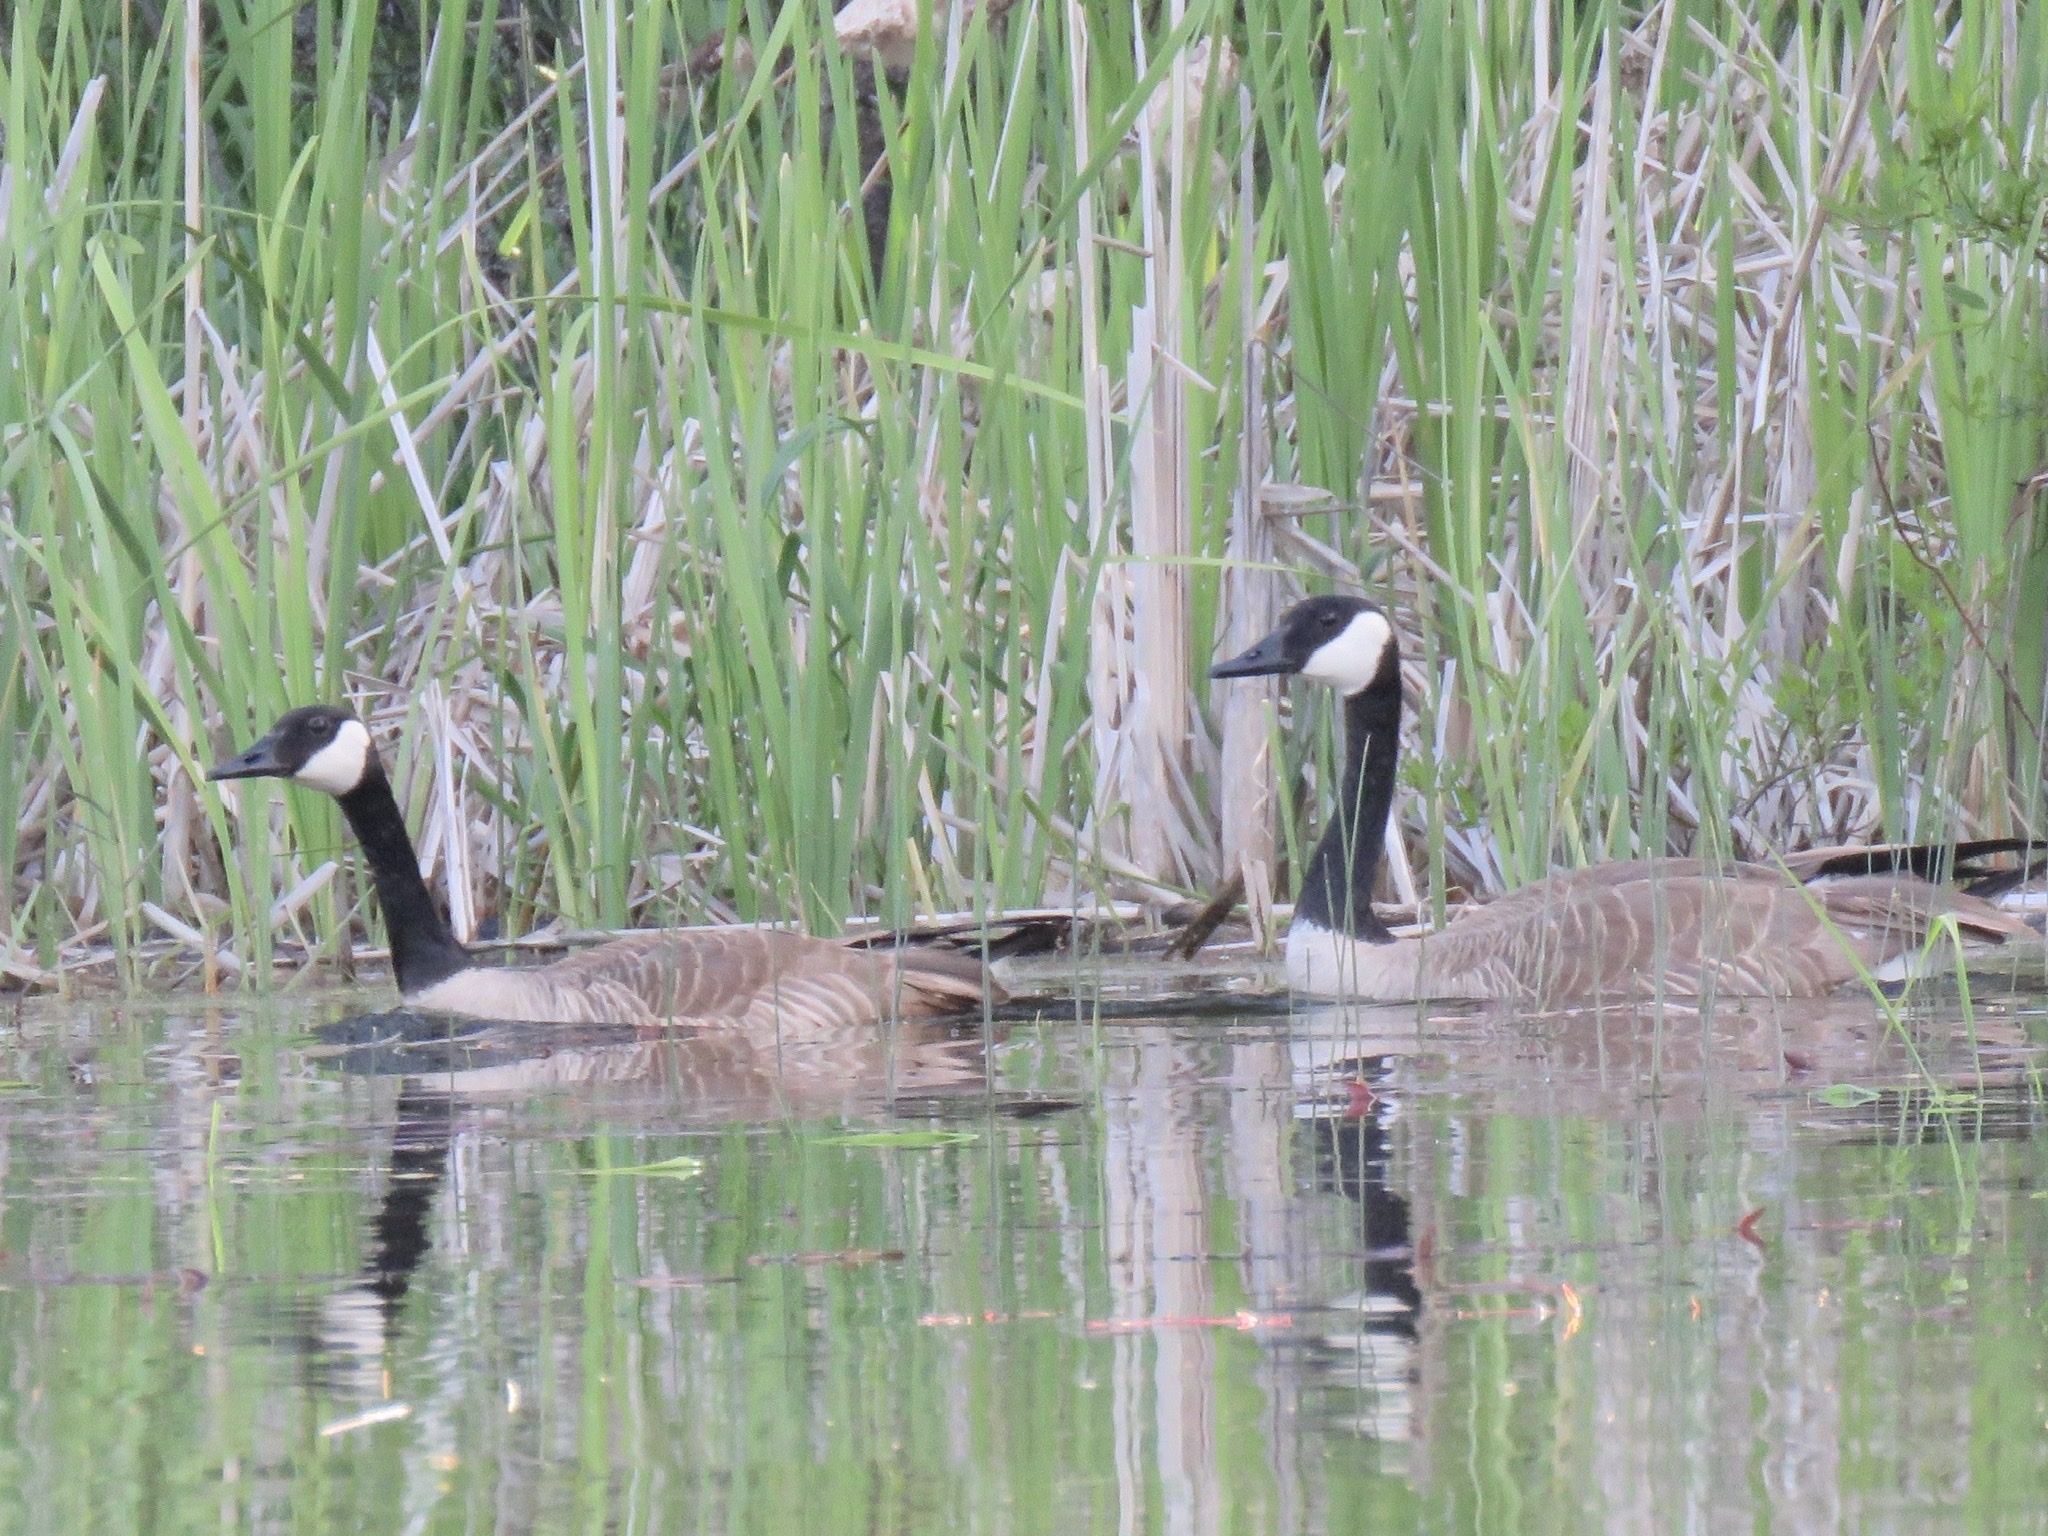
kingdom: Animalia
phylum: Chordata
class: Aves
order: Anseriformes
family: Anatidae
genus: Branta
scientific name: Branta canadensis
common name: Canada goose
